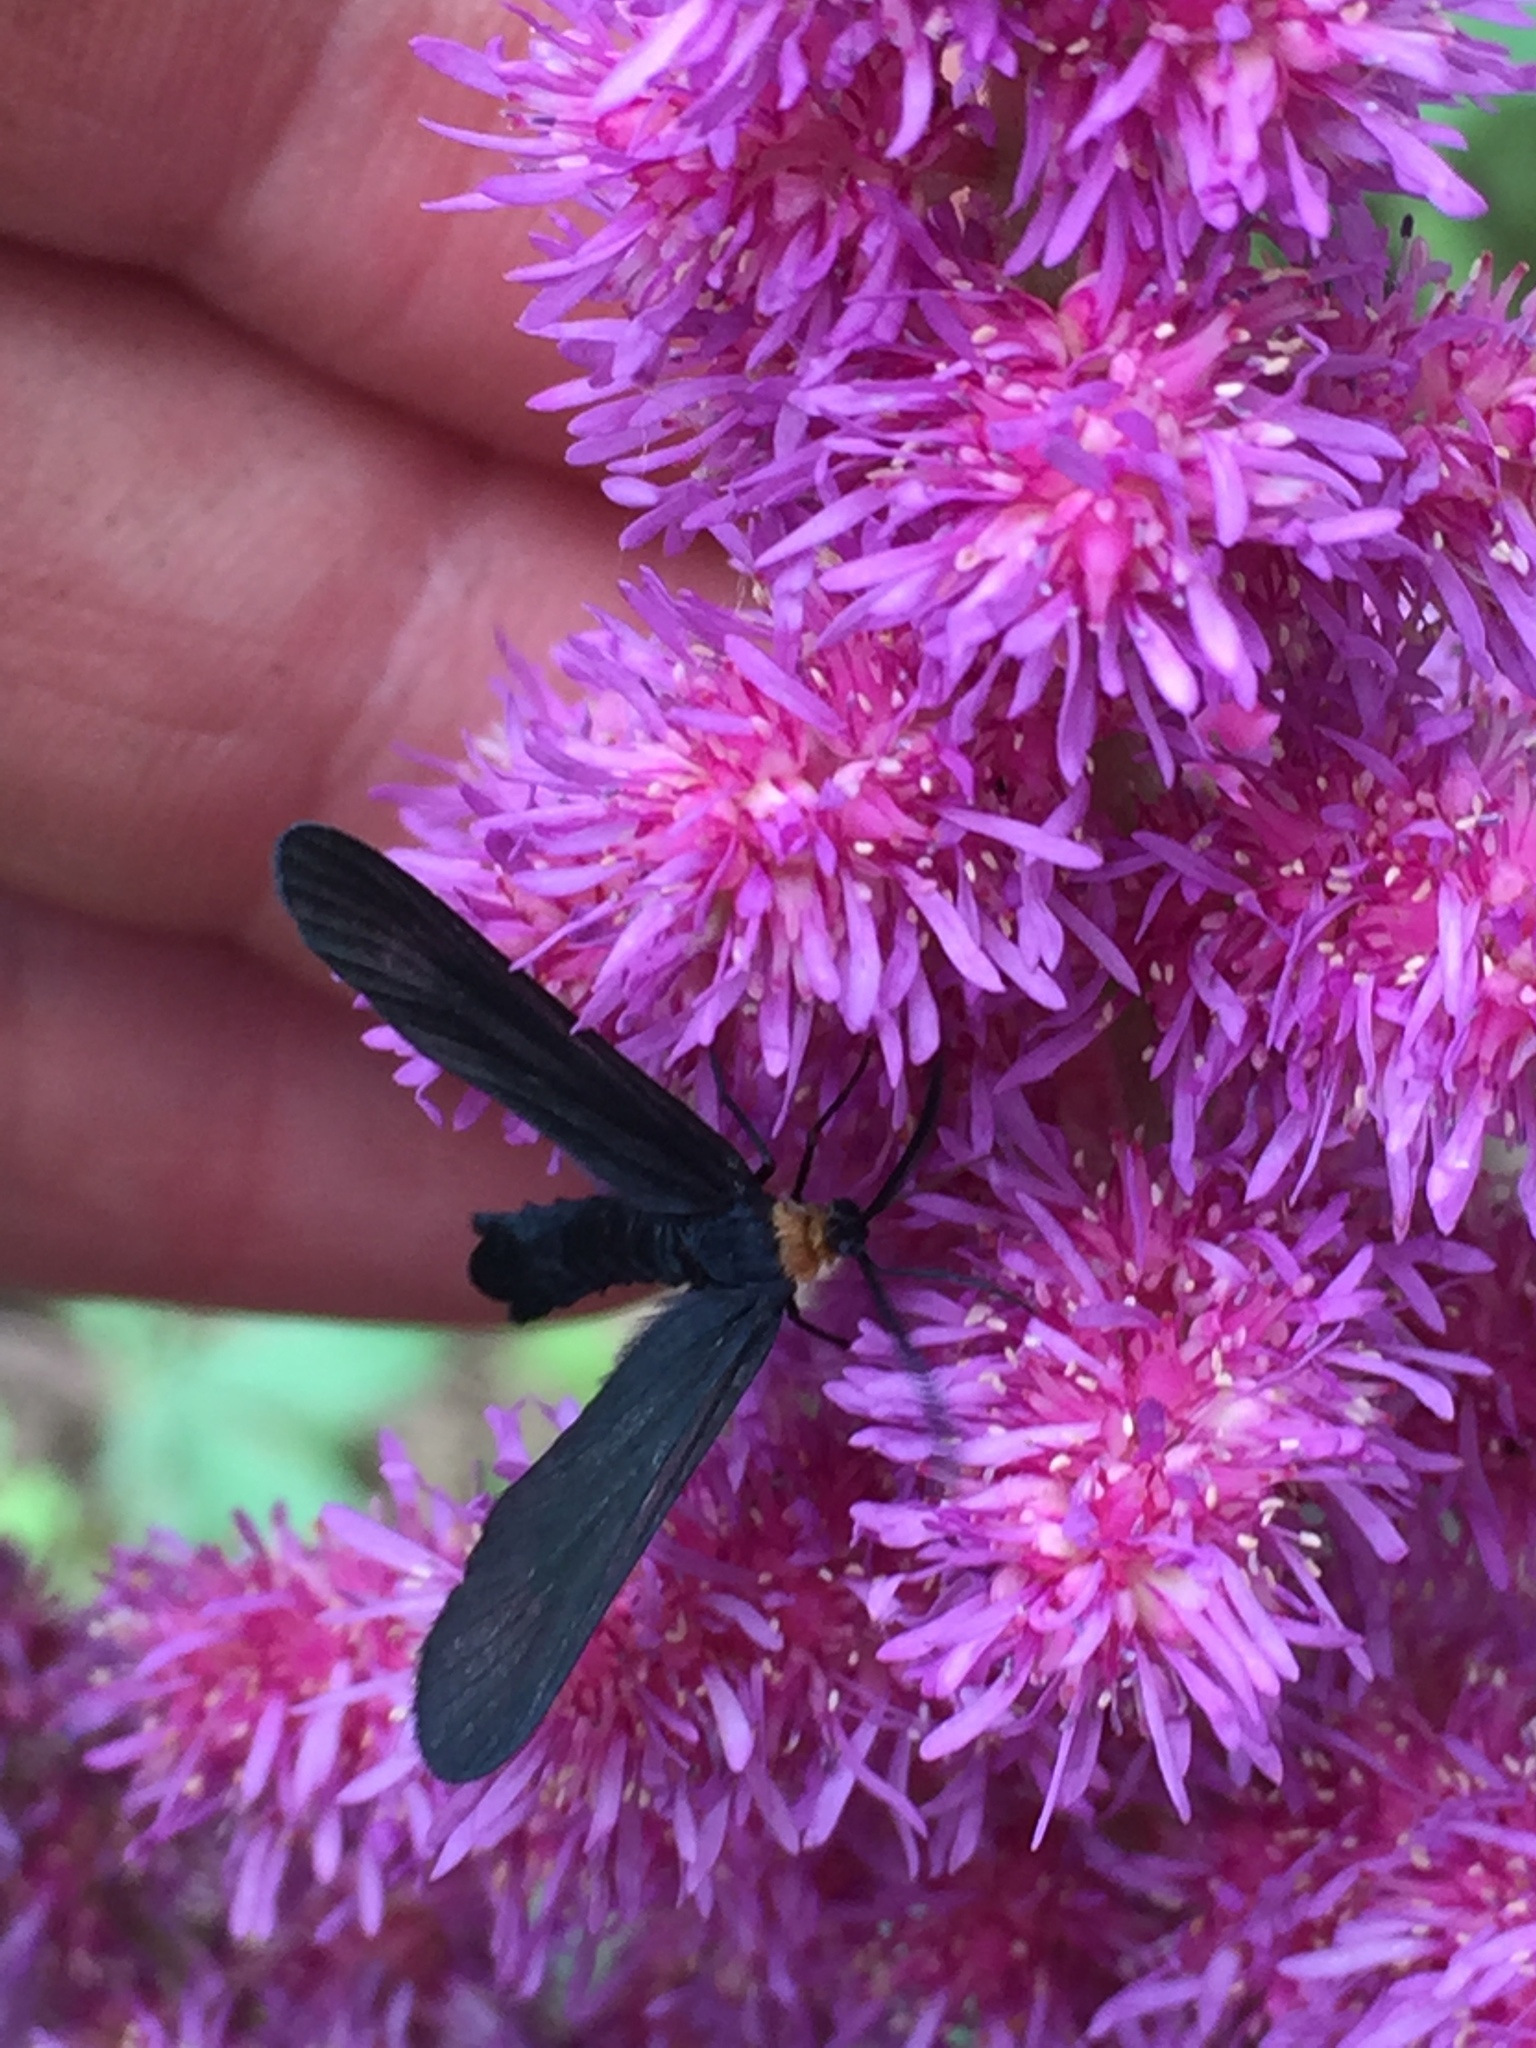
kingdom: Animalia
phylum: Arthropoda
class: Insecta
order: Lepidoptera
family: Zygaenidae
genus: Harrisina
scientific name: Harrisina americana
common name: Grapeleaf skeletonizer moth
